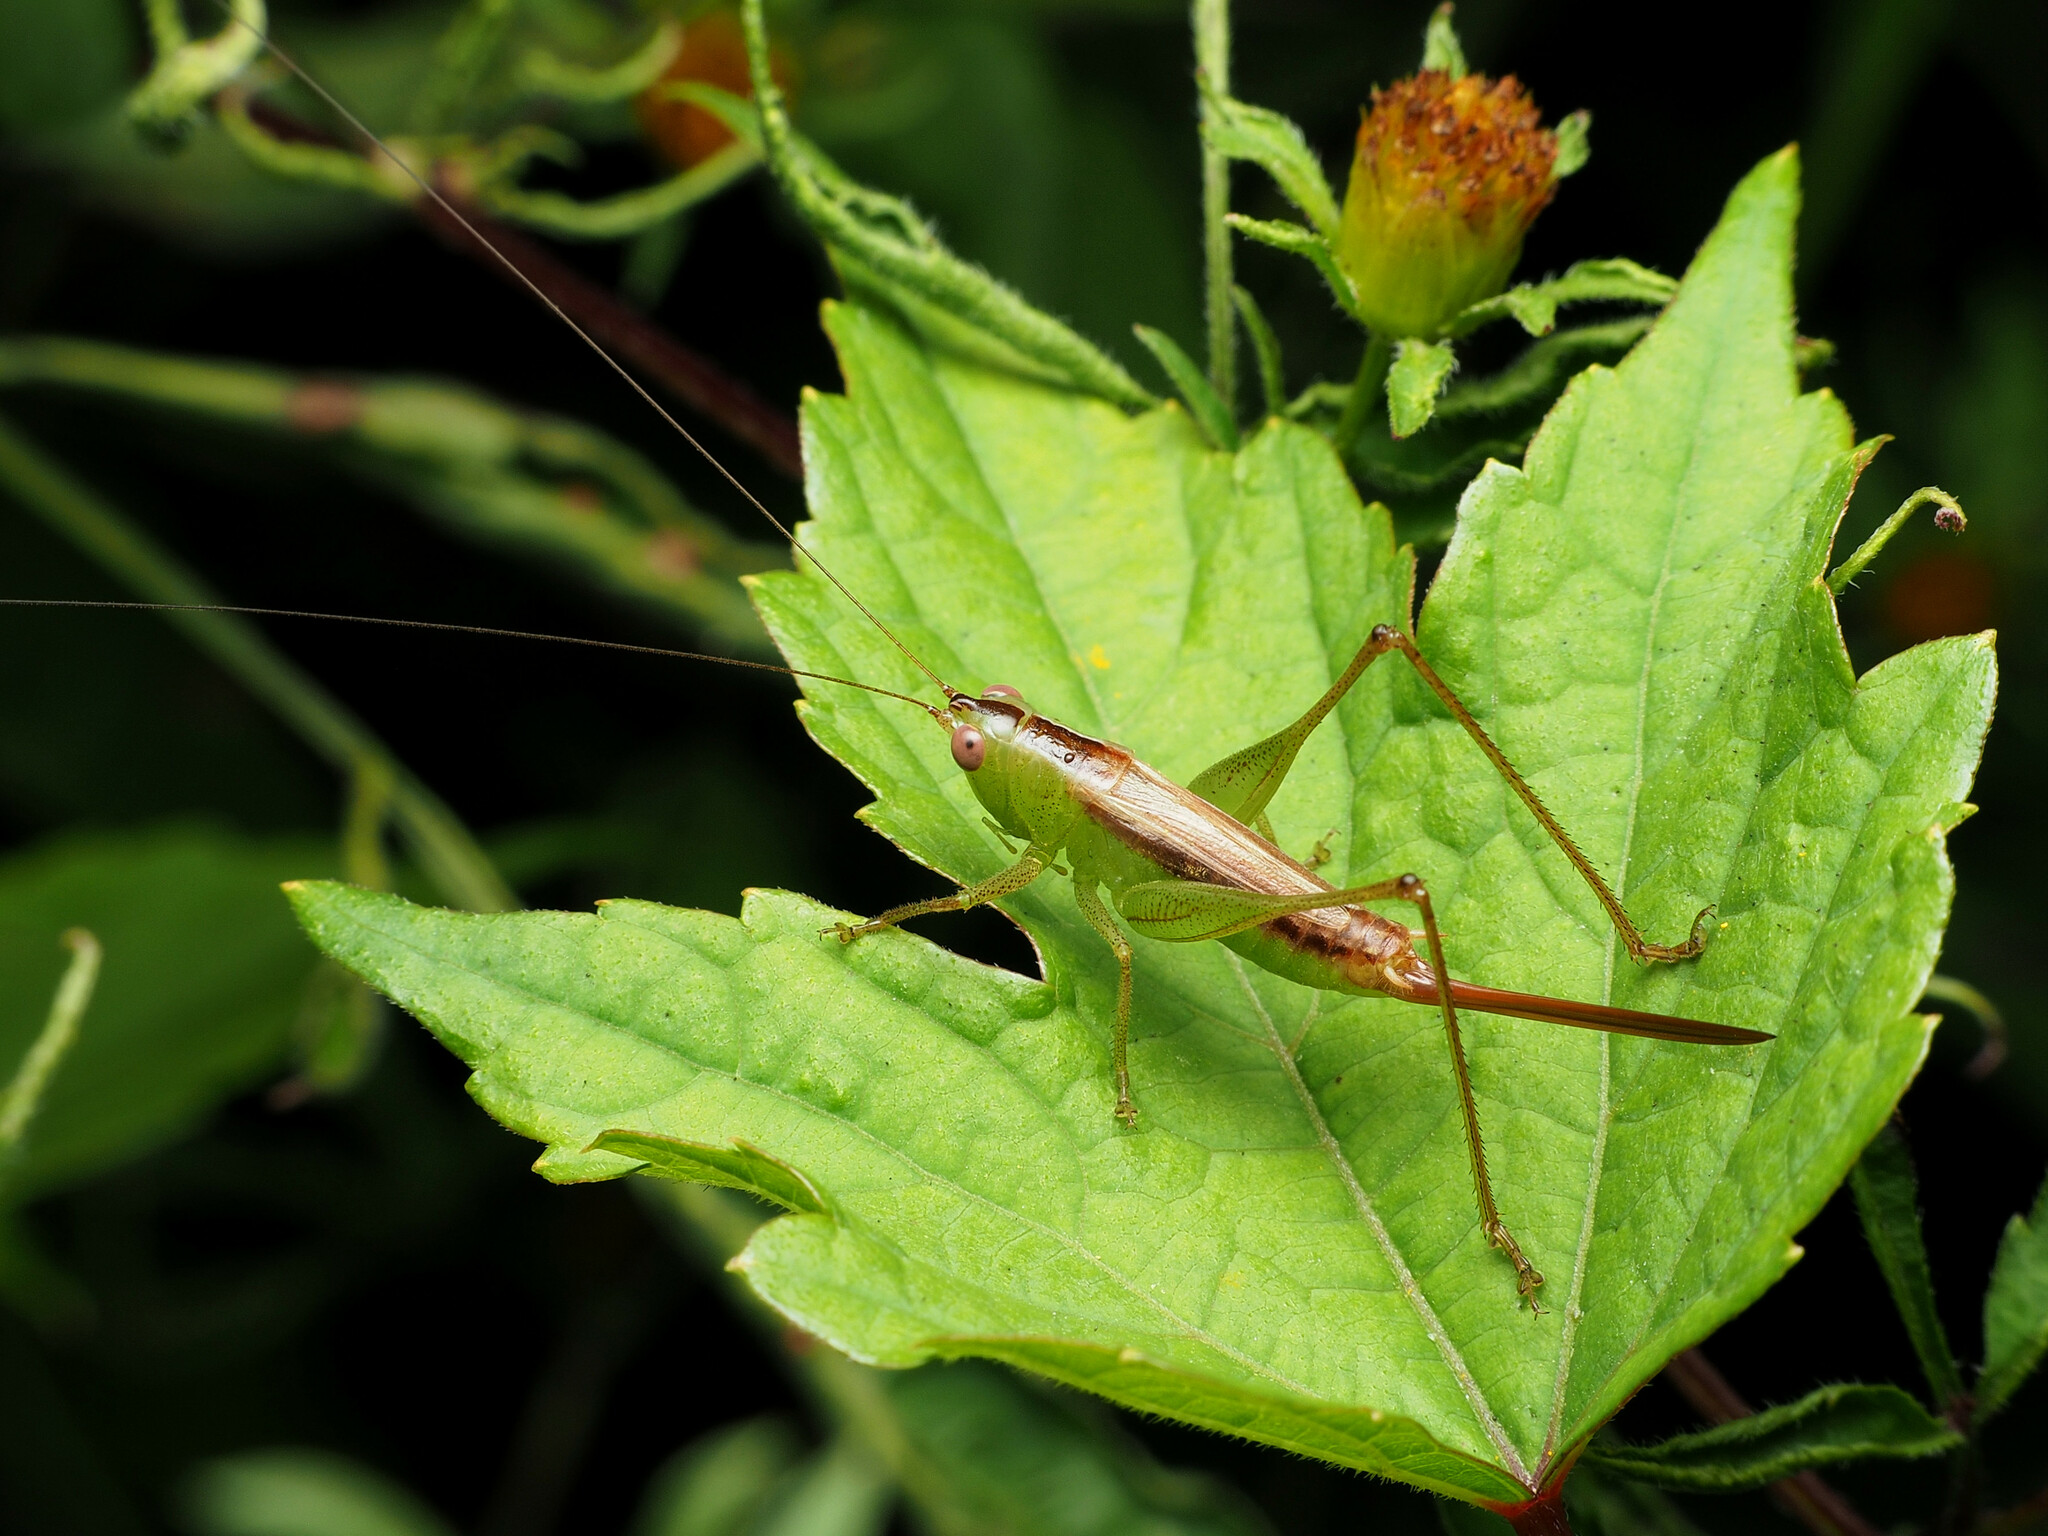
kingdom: Animalia
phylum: Arthropoda
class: Insecta
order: Orthoptera
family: Tettigoniidae
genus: Conocephalus
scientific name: Conocephalus brevipennis
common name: Short-winged meadow katydid
